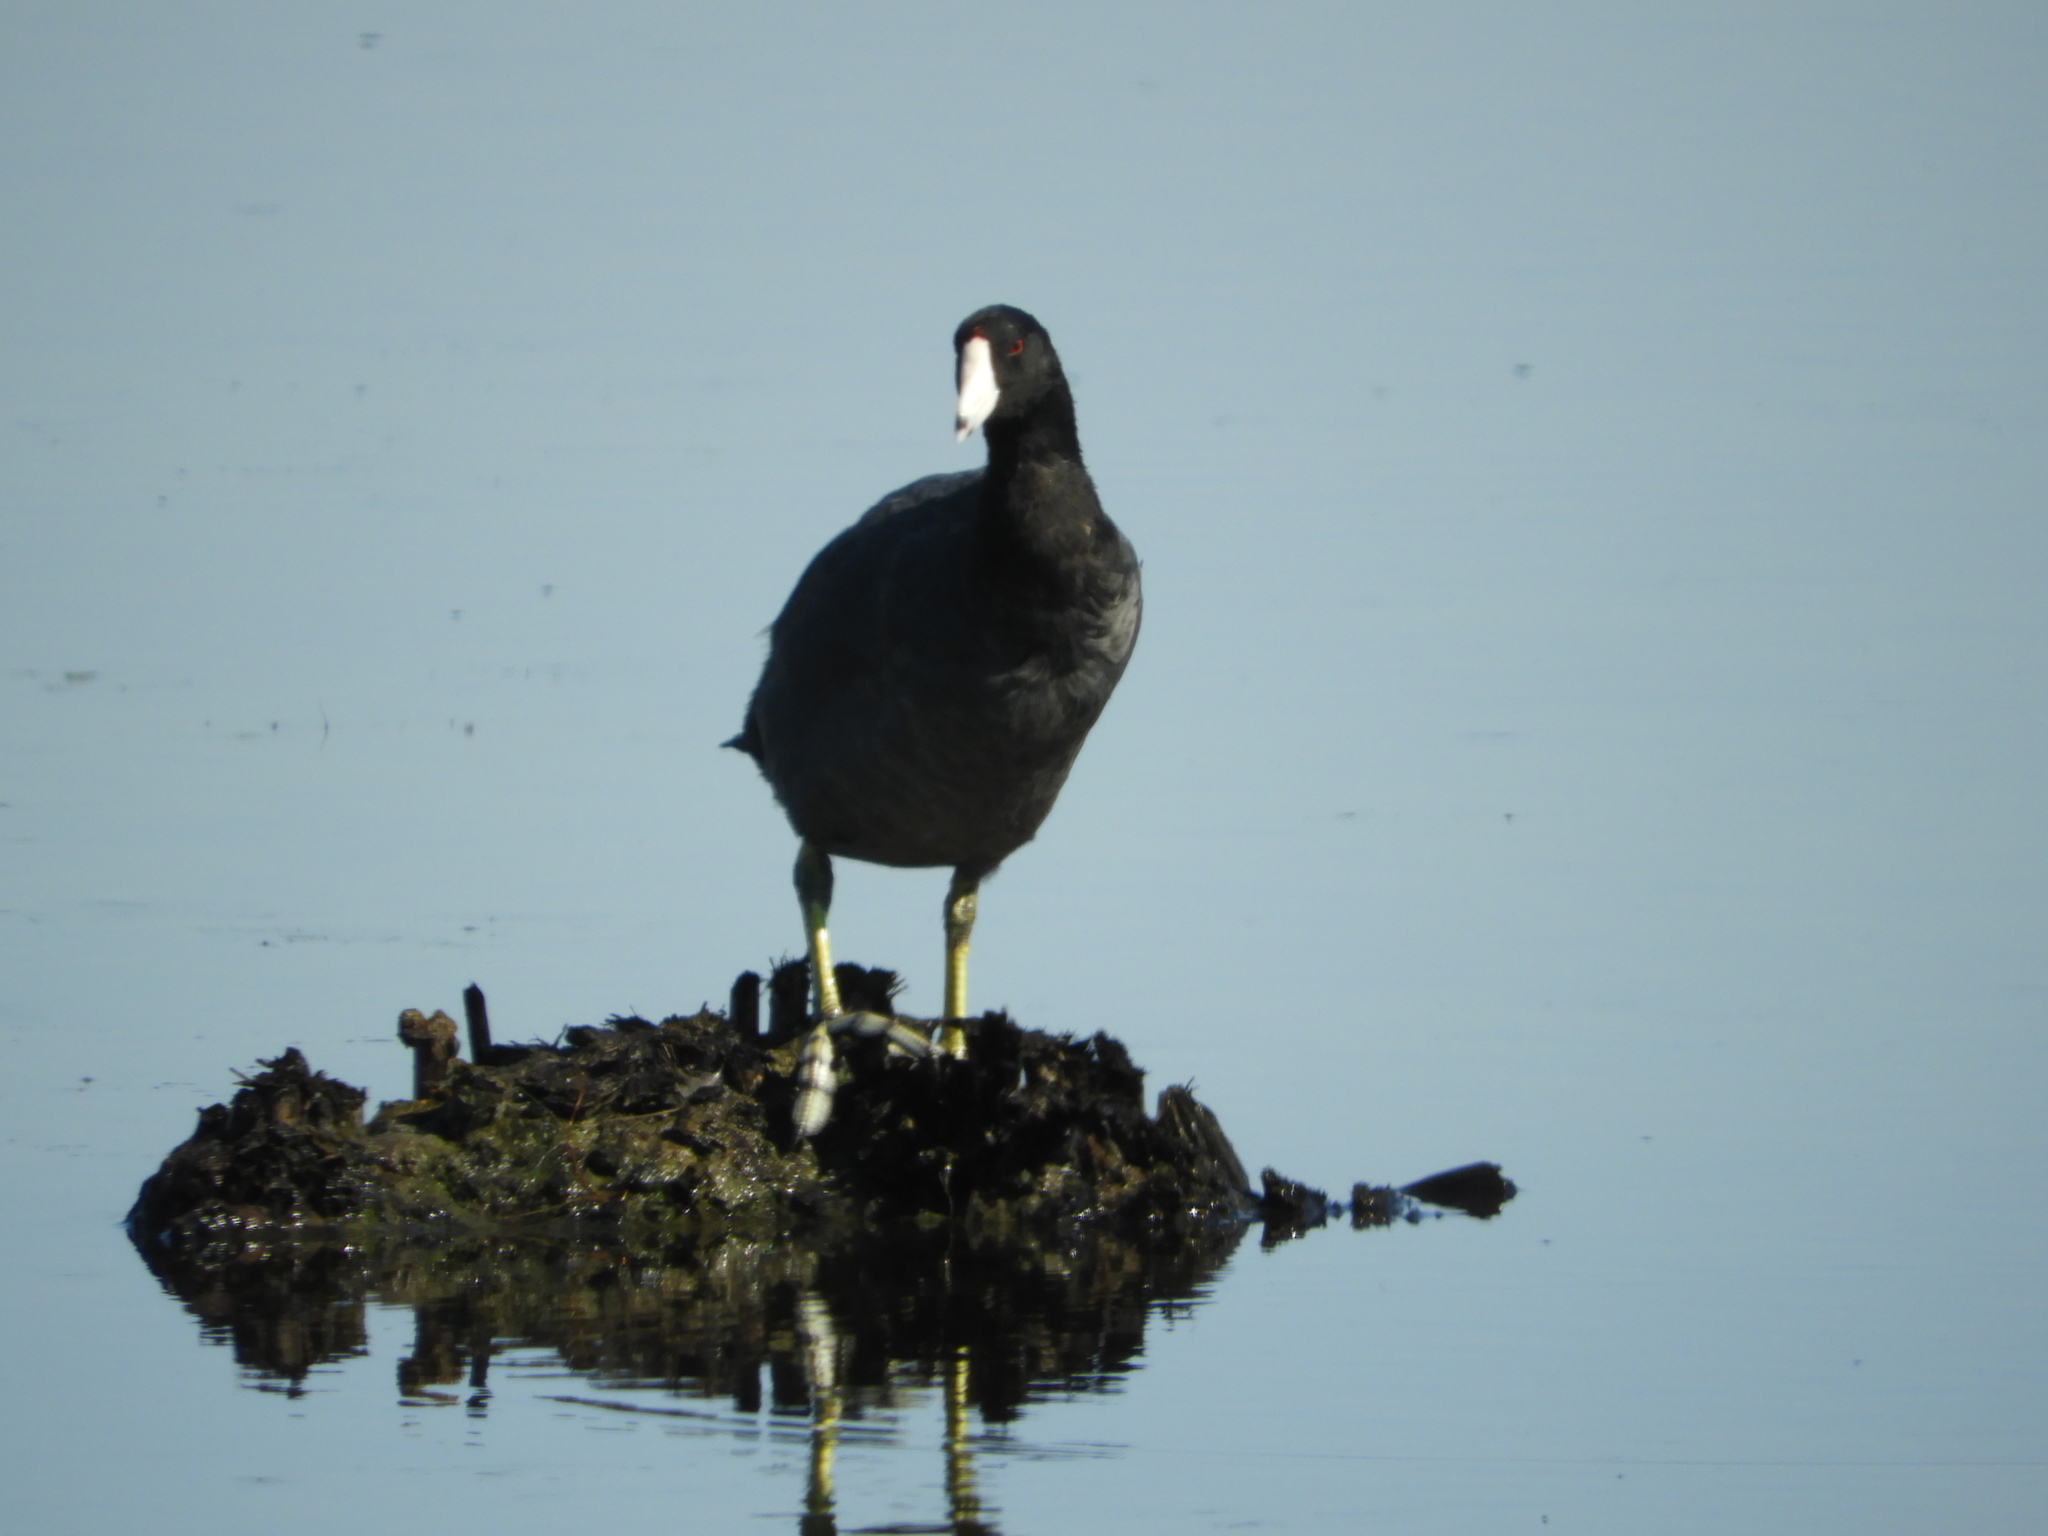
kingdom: Animalia
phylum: Chordata
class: Aves
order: Gruiformes
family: Rallidae
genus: Fulica
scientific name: Fulica americana
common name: American coot
